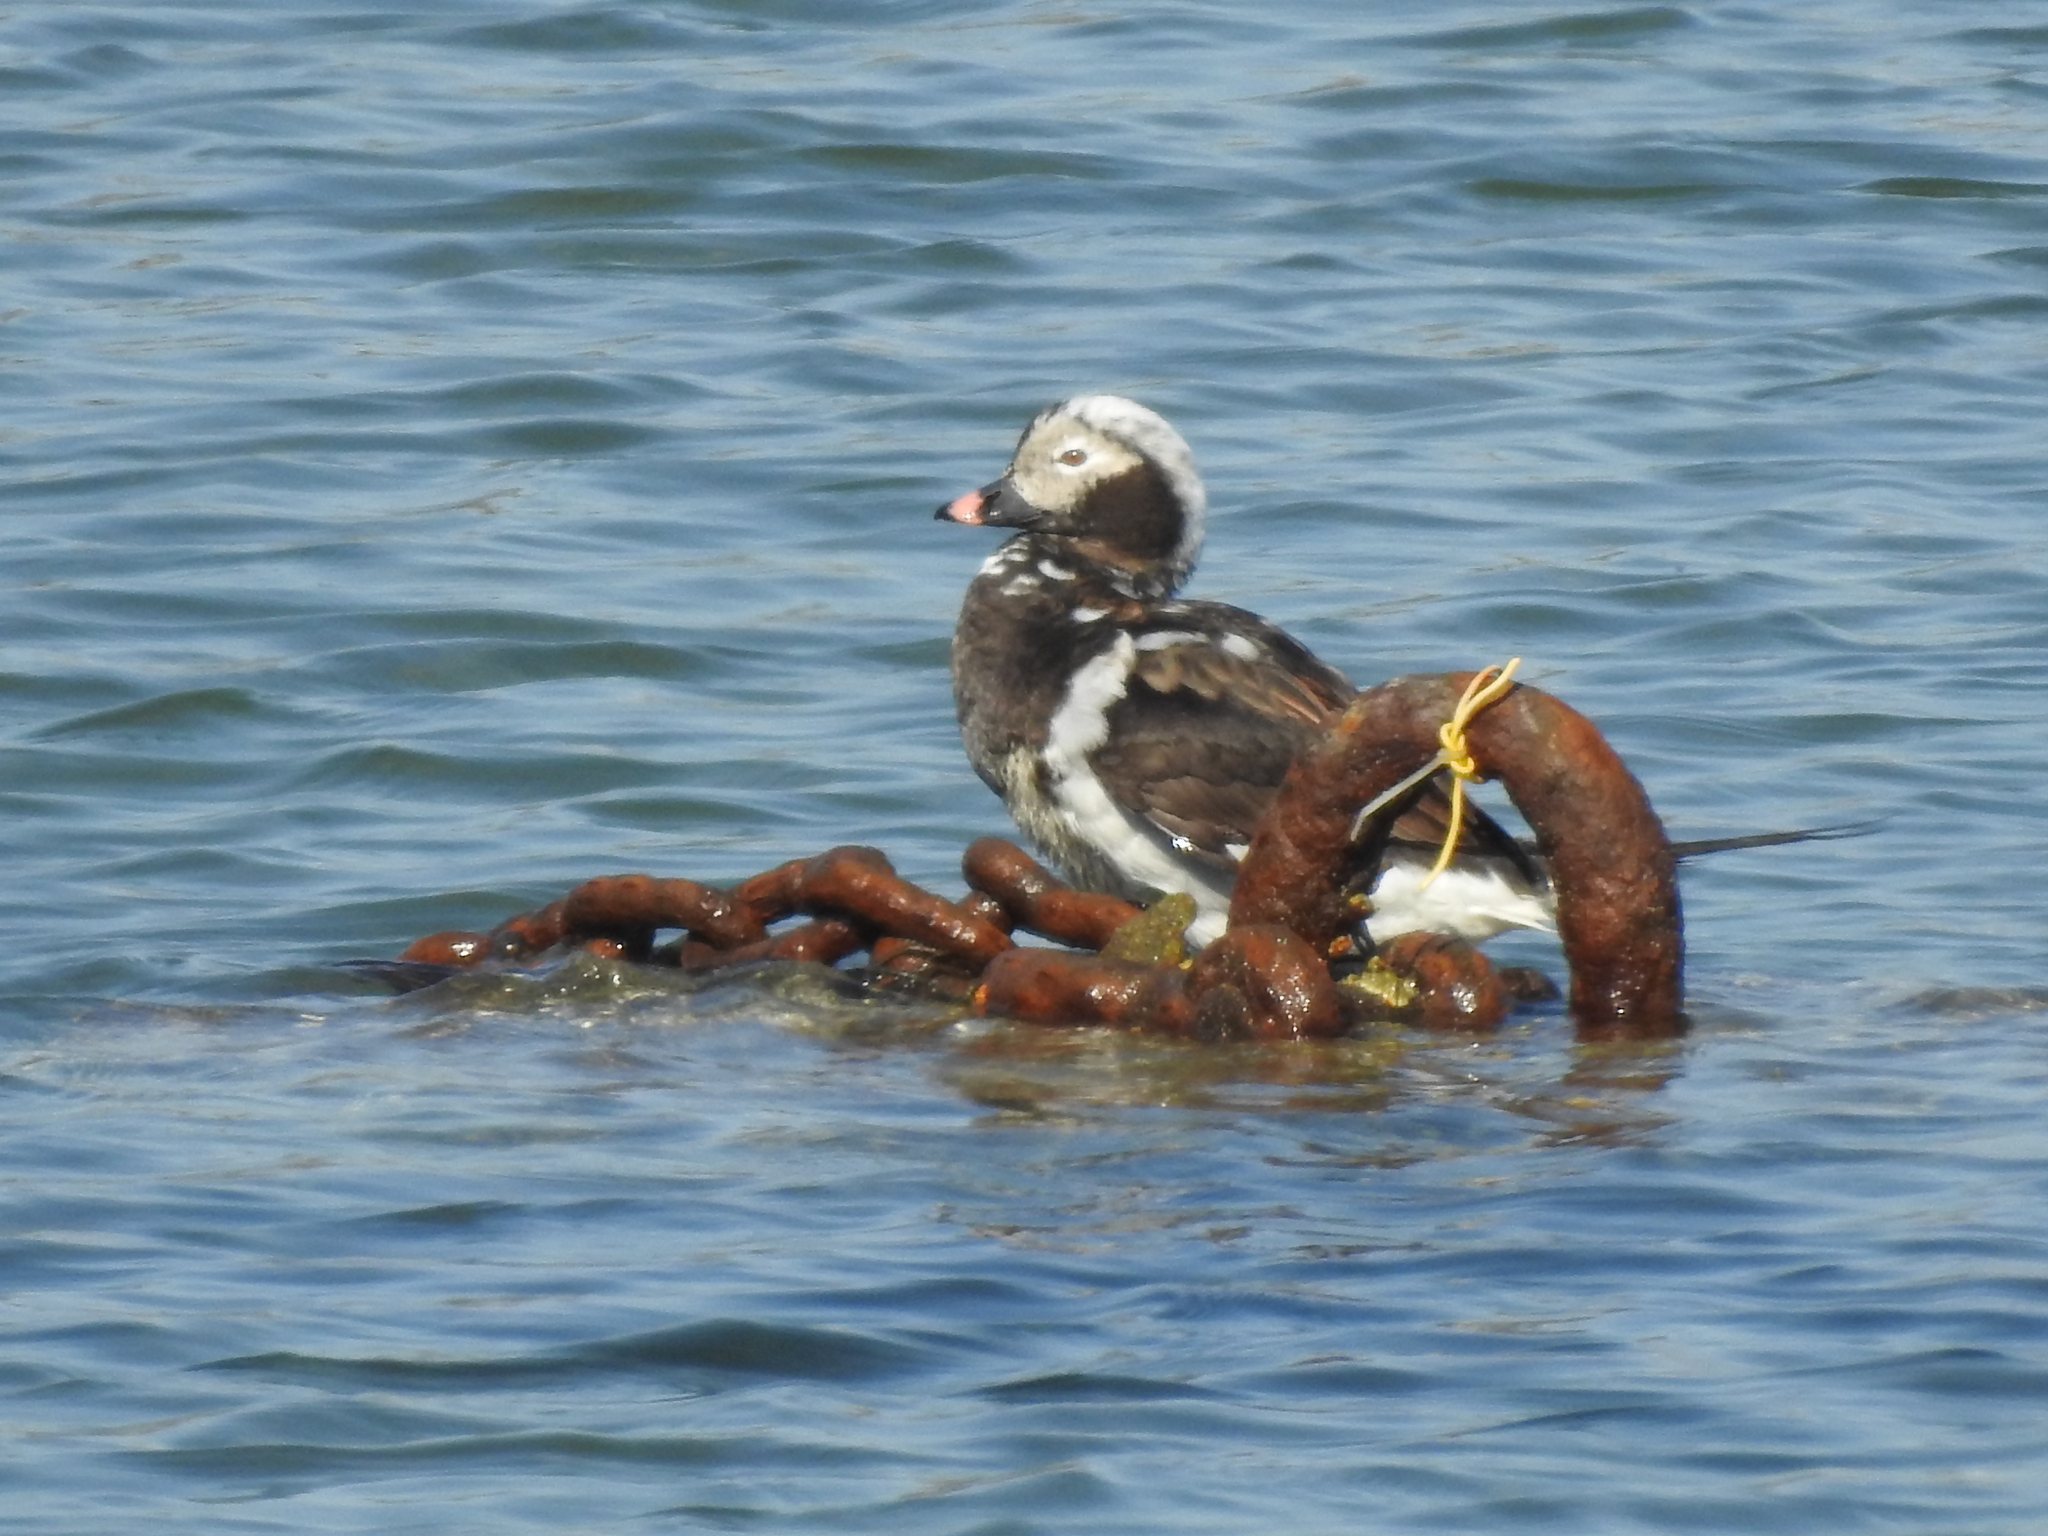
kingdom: Animalia
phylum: Chordata
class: Aves
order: Anseriformes
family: Anatidae
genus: Clangula
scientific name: Clangula hyemalis
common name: Long-tailed duck
